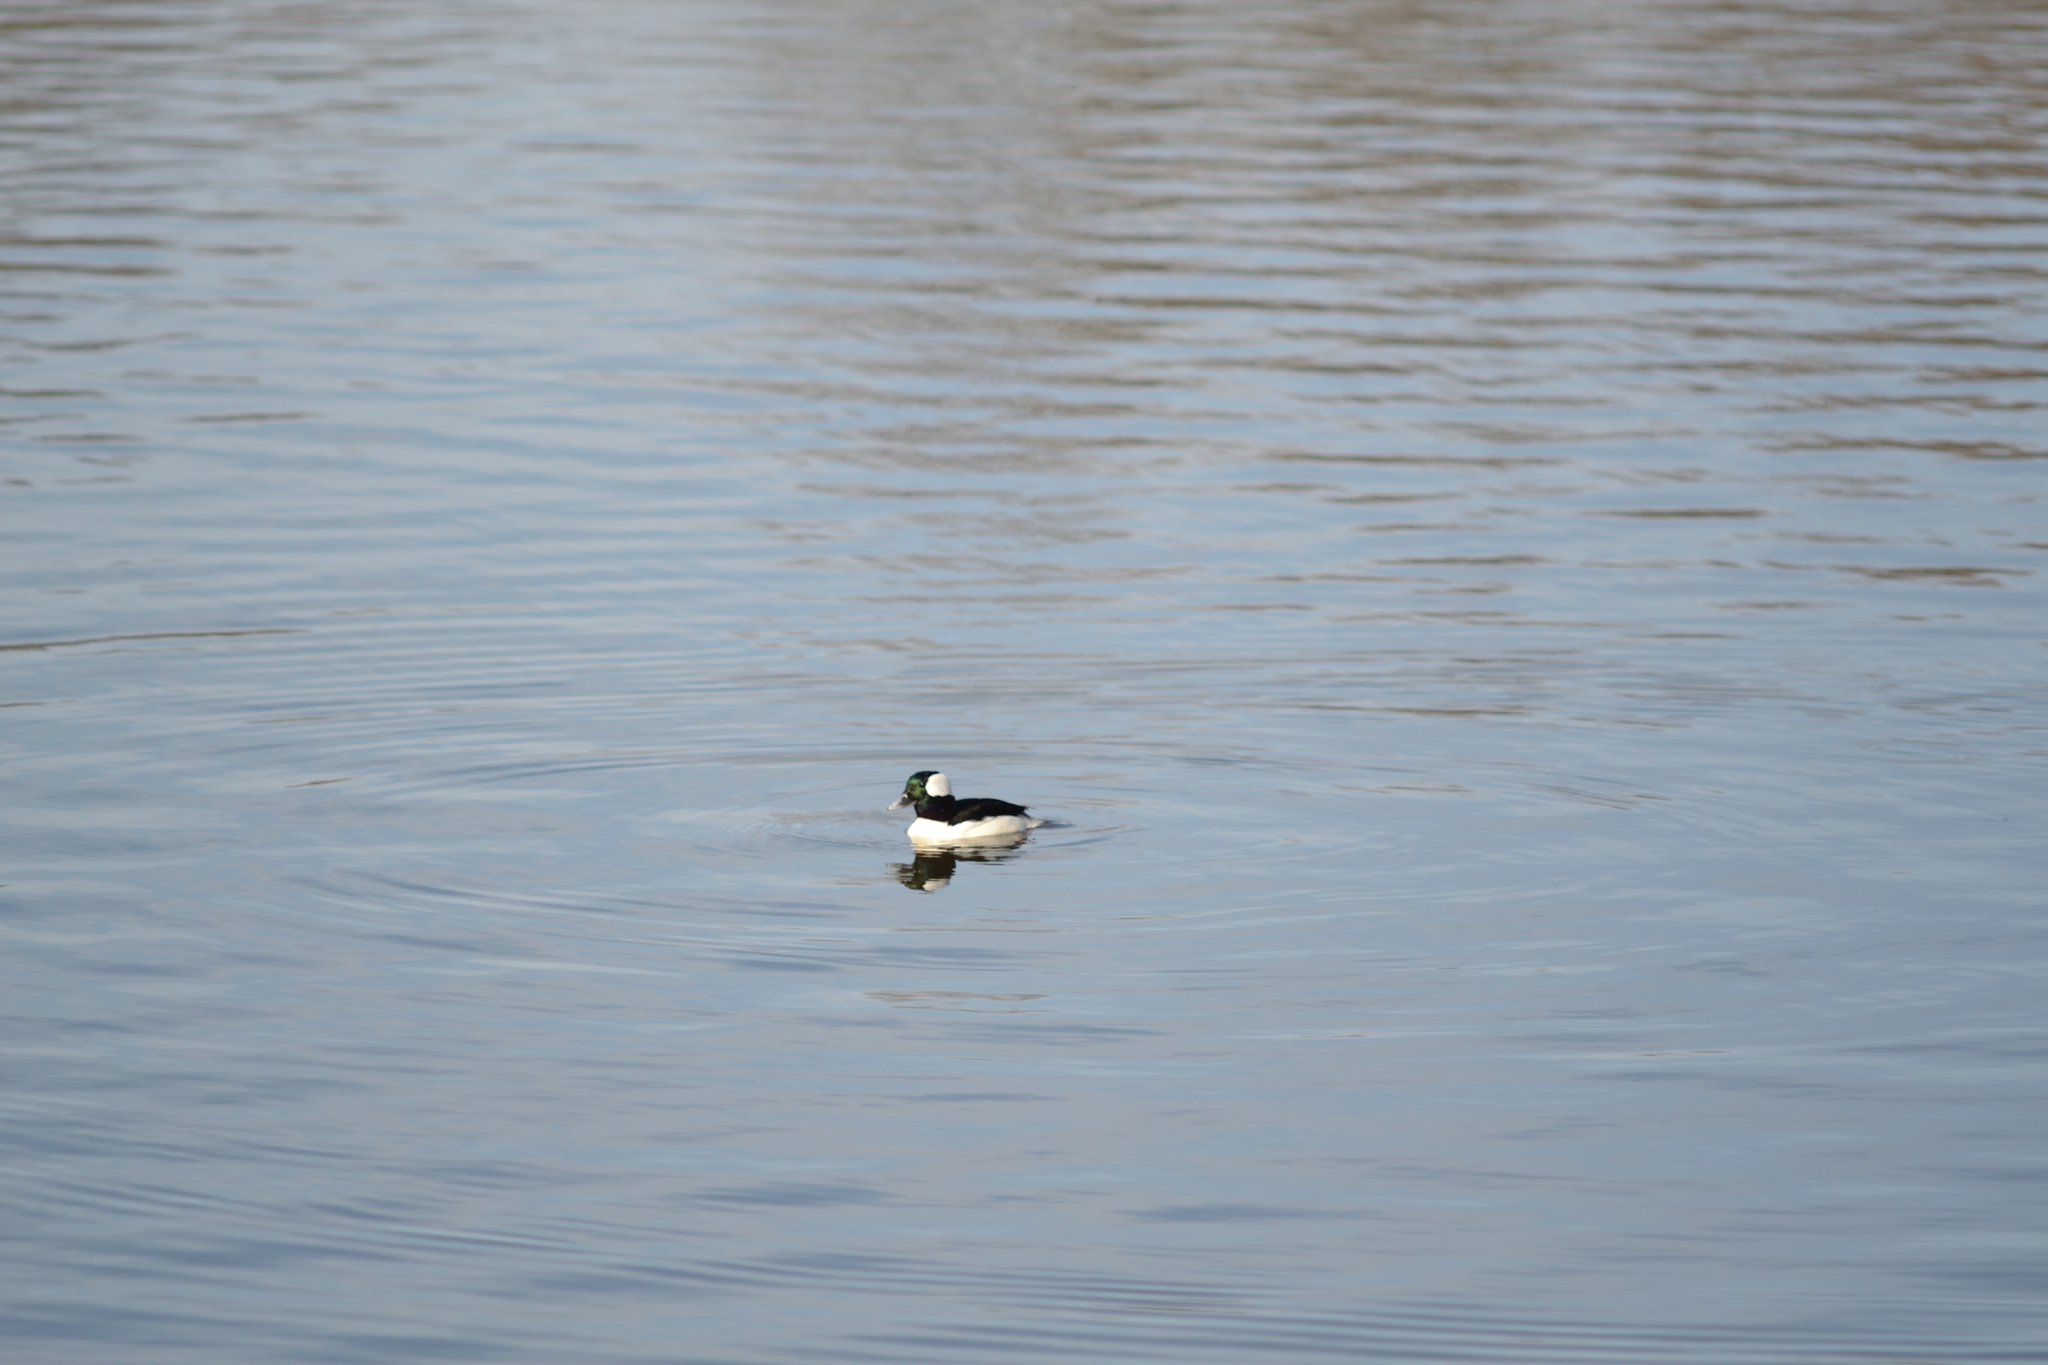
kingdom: Animalia
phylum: Chordata
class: Aves
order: Anseriformes
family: Anatidae
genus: Bucephala
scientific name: Bucephala albeola
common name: Bufflehead
